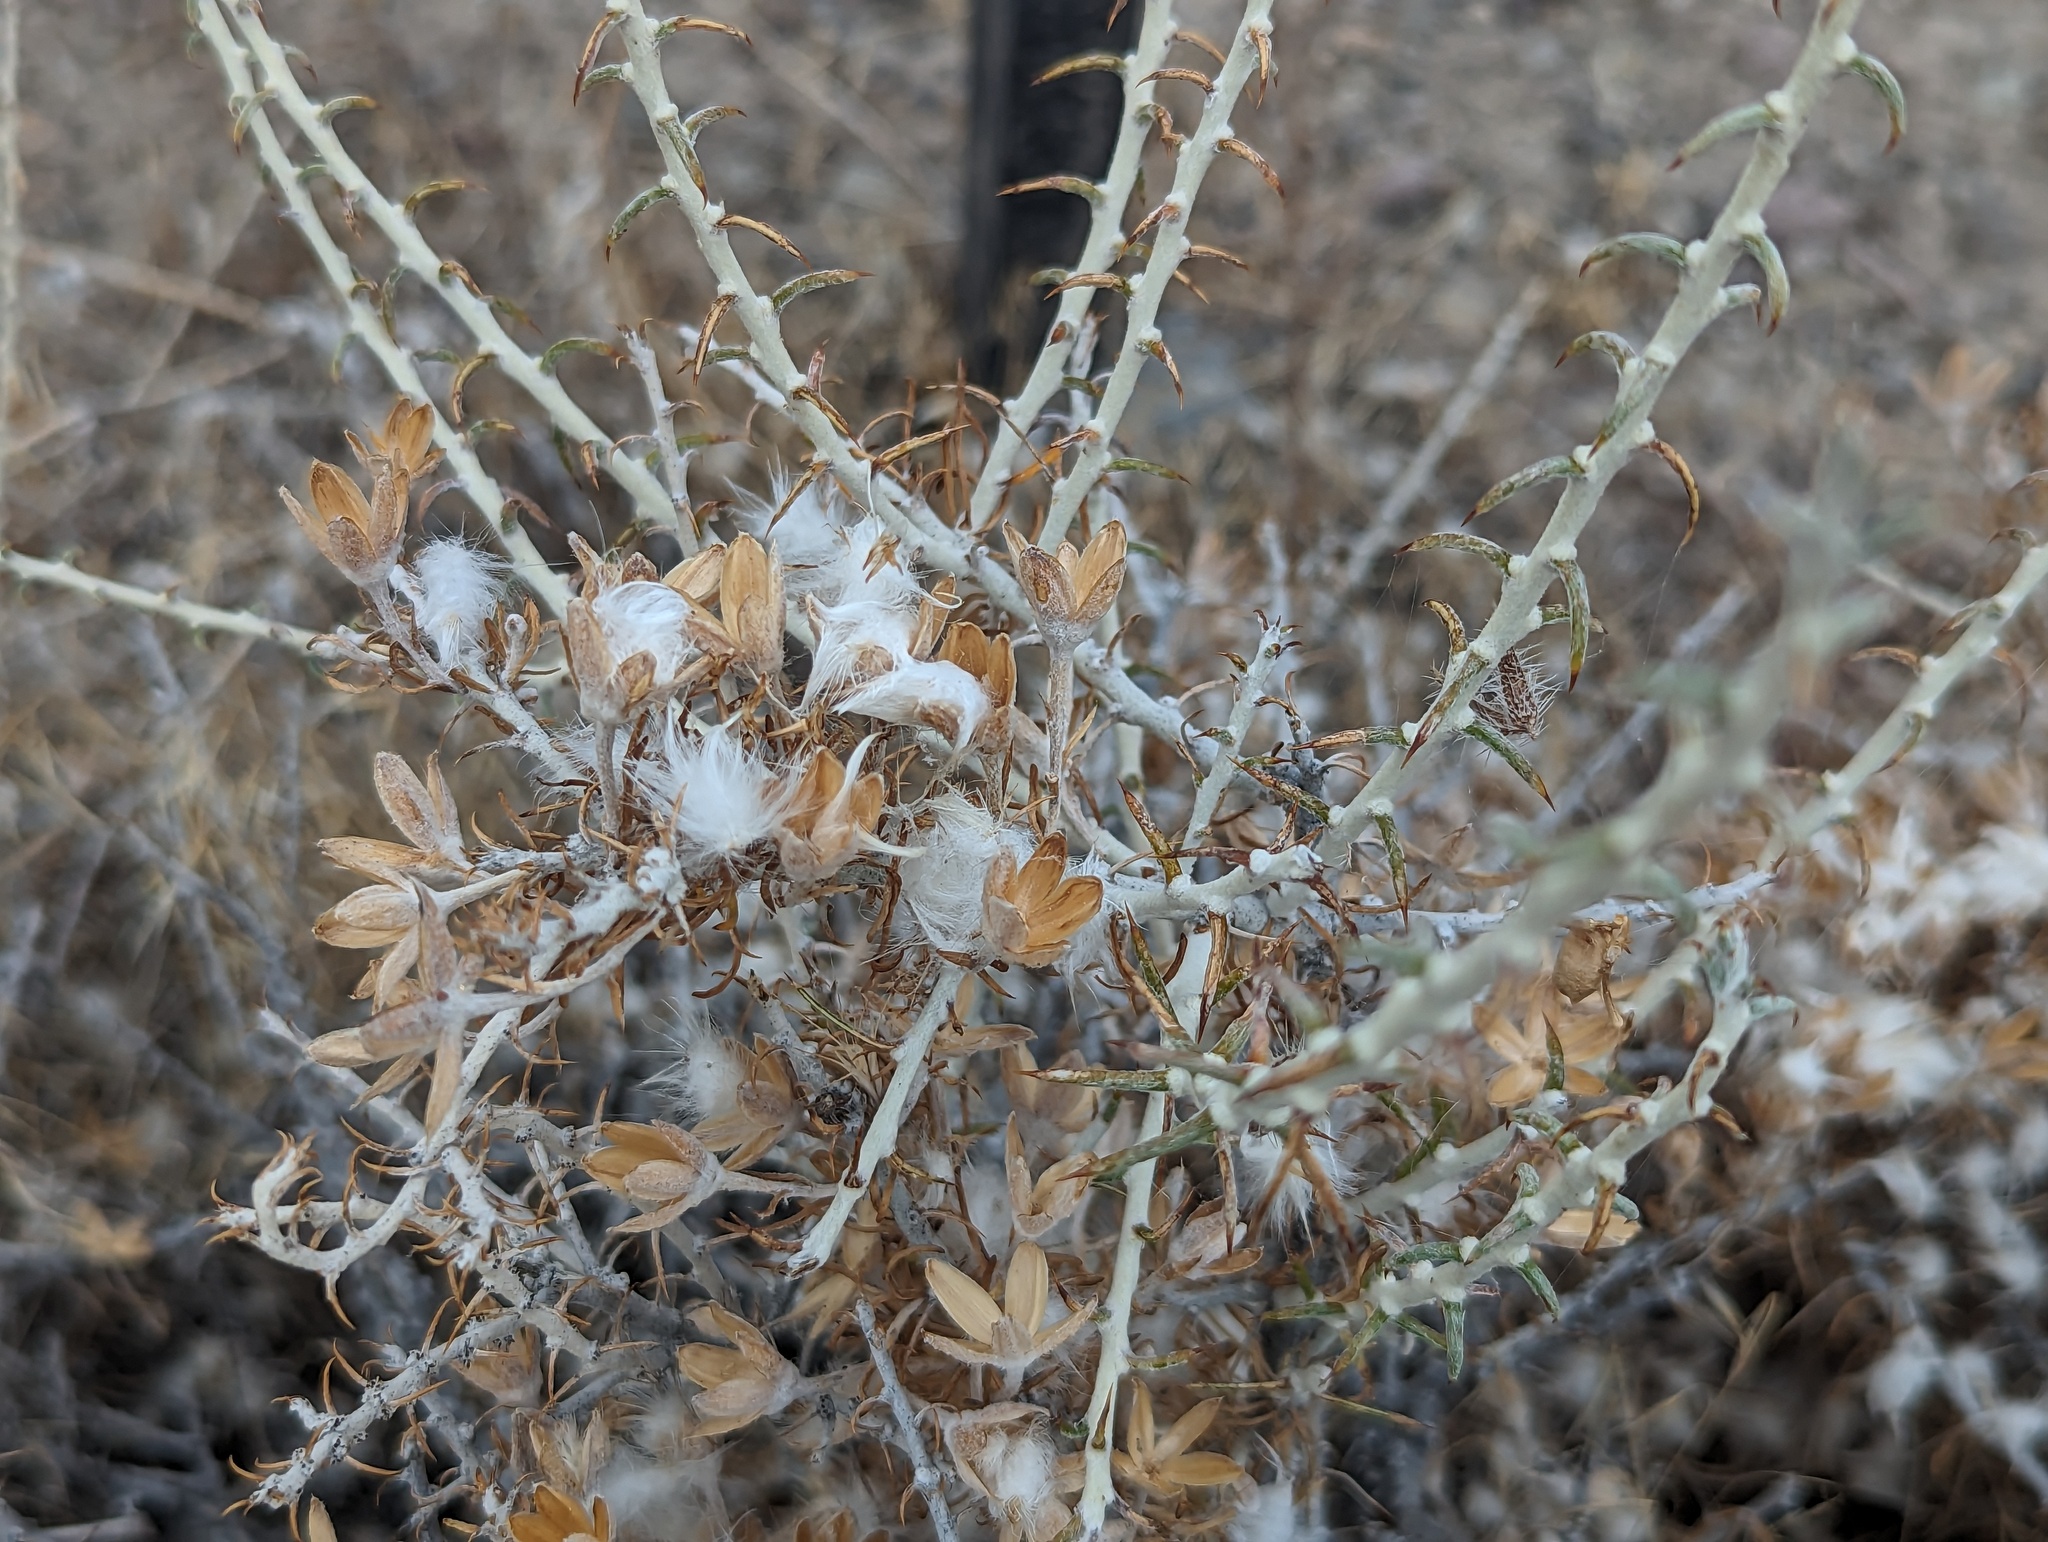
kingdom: Plantae
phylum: Tracheophyta
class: Magnoliopsida
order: Asterales
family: Asteraceae
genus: Tetradymia
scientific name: Tetradymia spinosa
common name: Thorny horsebrush
